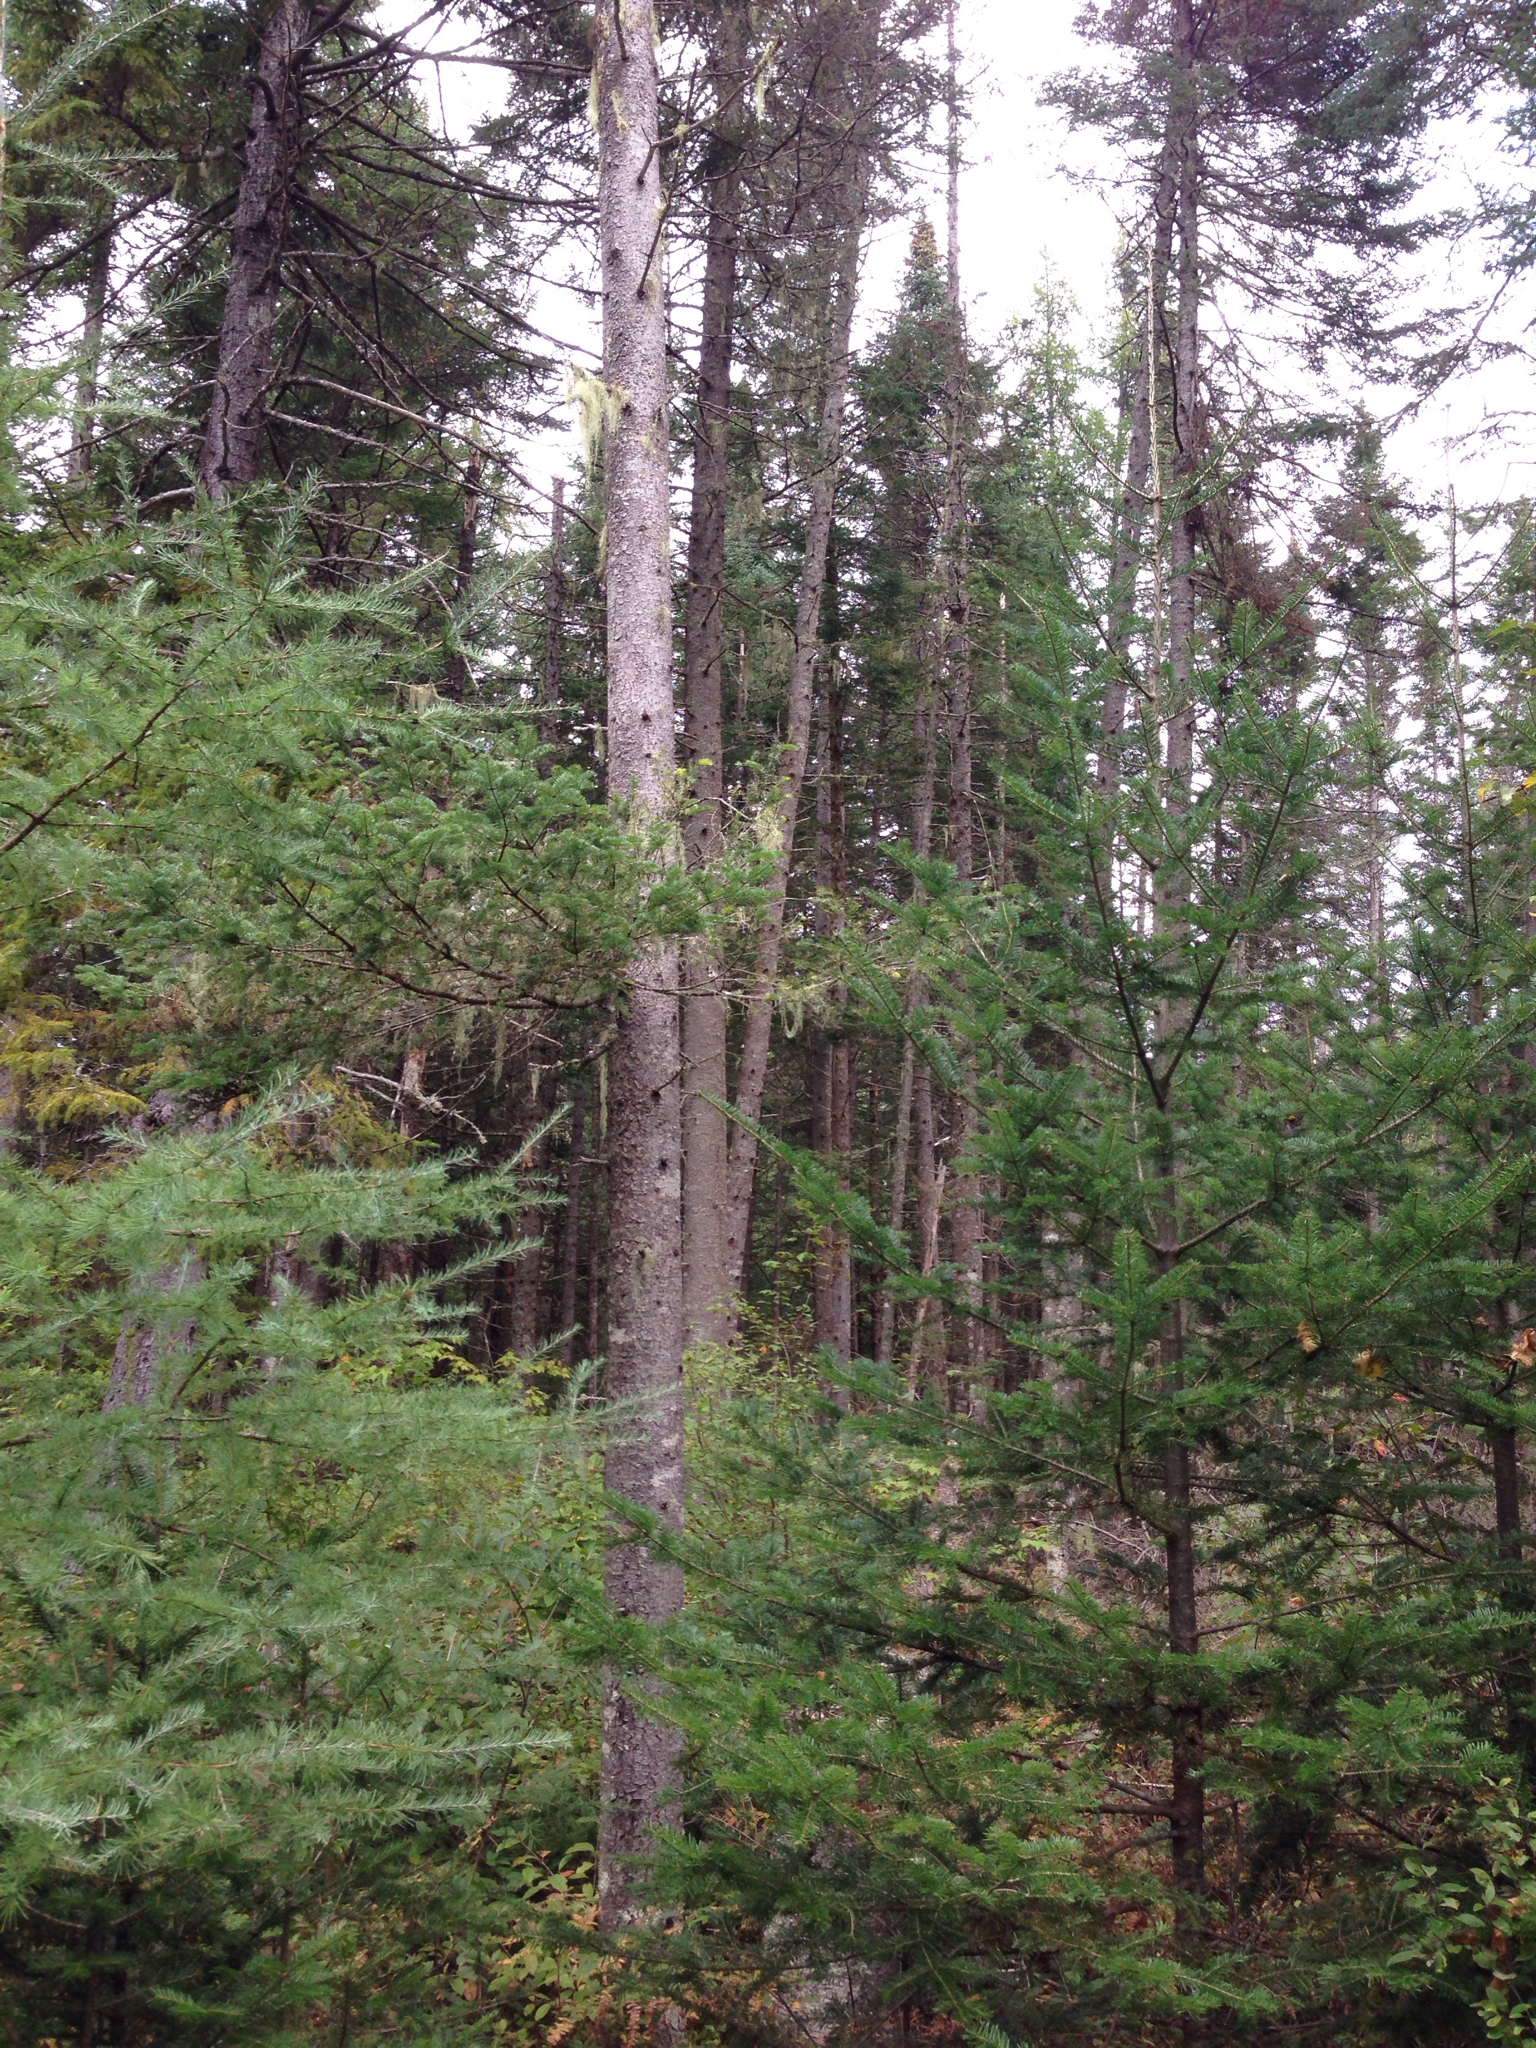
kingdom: Plantae
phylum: Tracheophyta
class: Pinopsida
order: Pinales
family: Pinaceae
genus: Abies
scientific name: Abies balsamea
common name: Balsam fir
